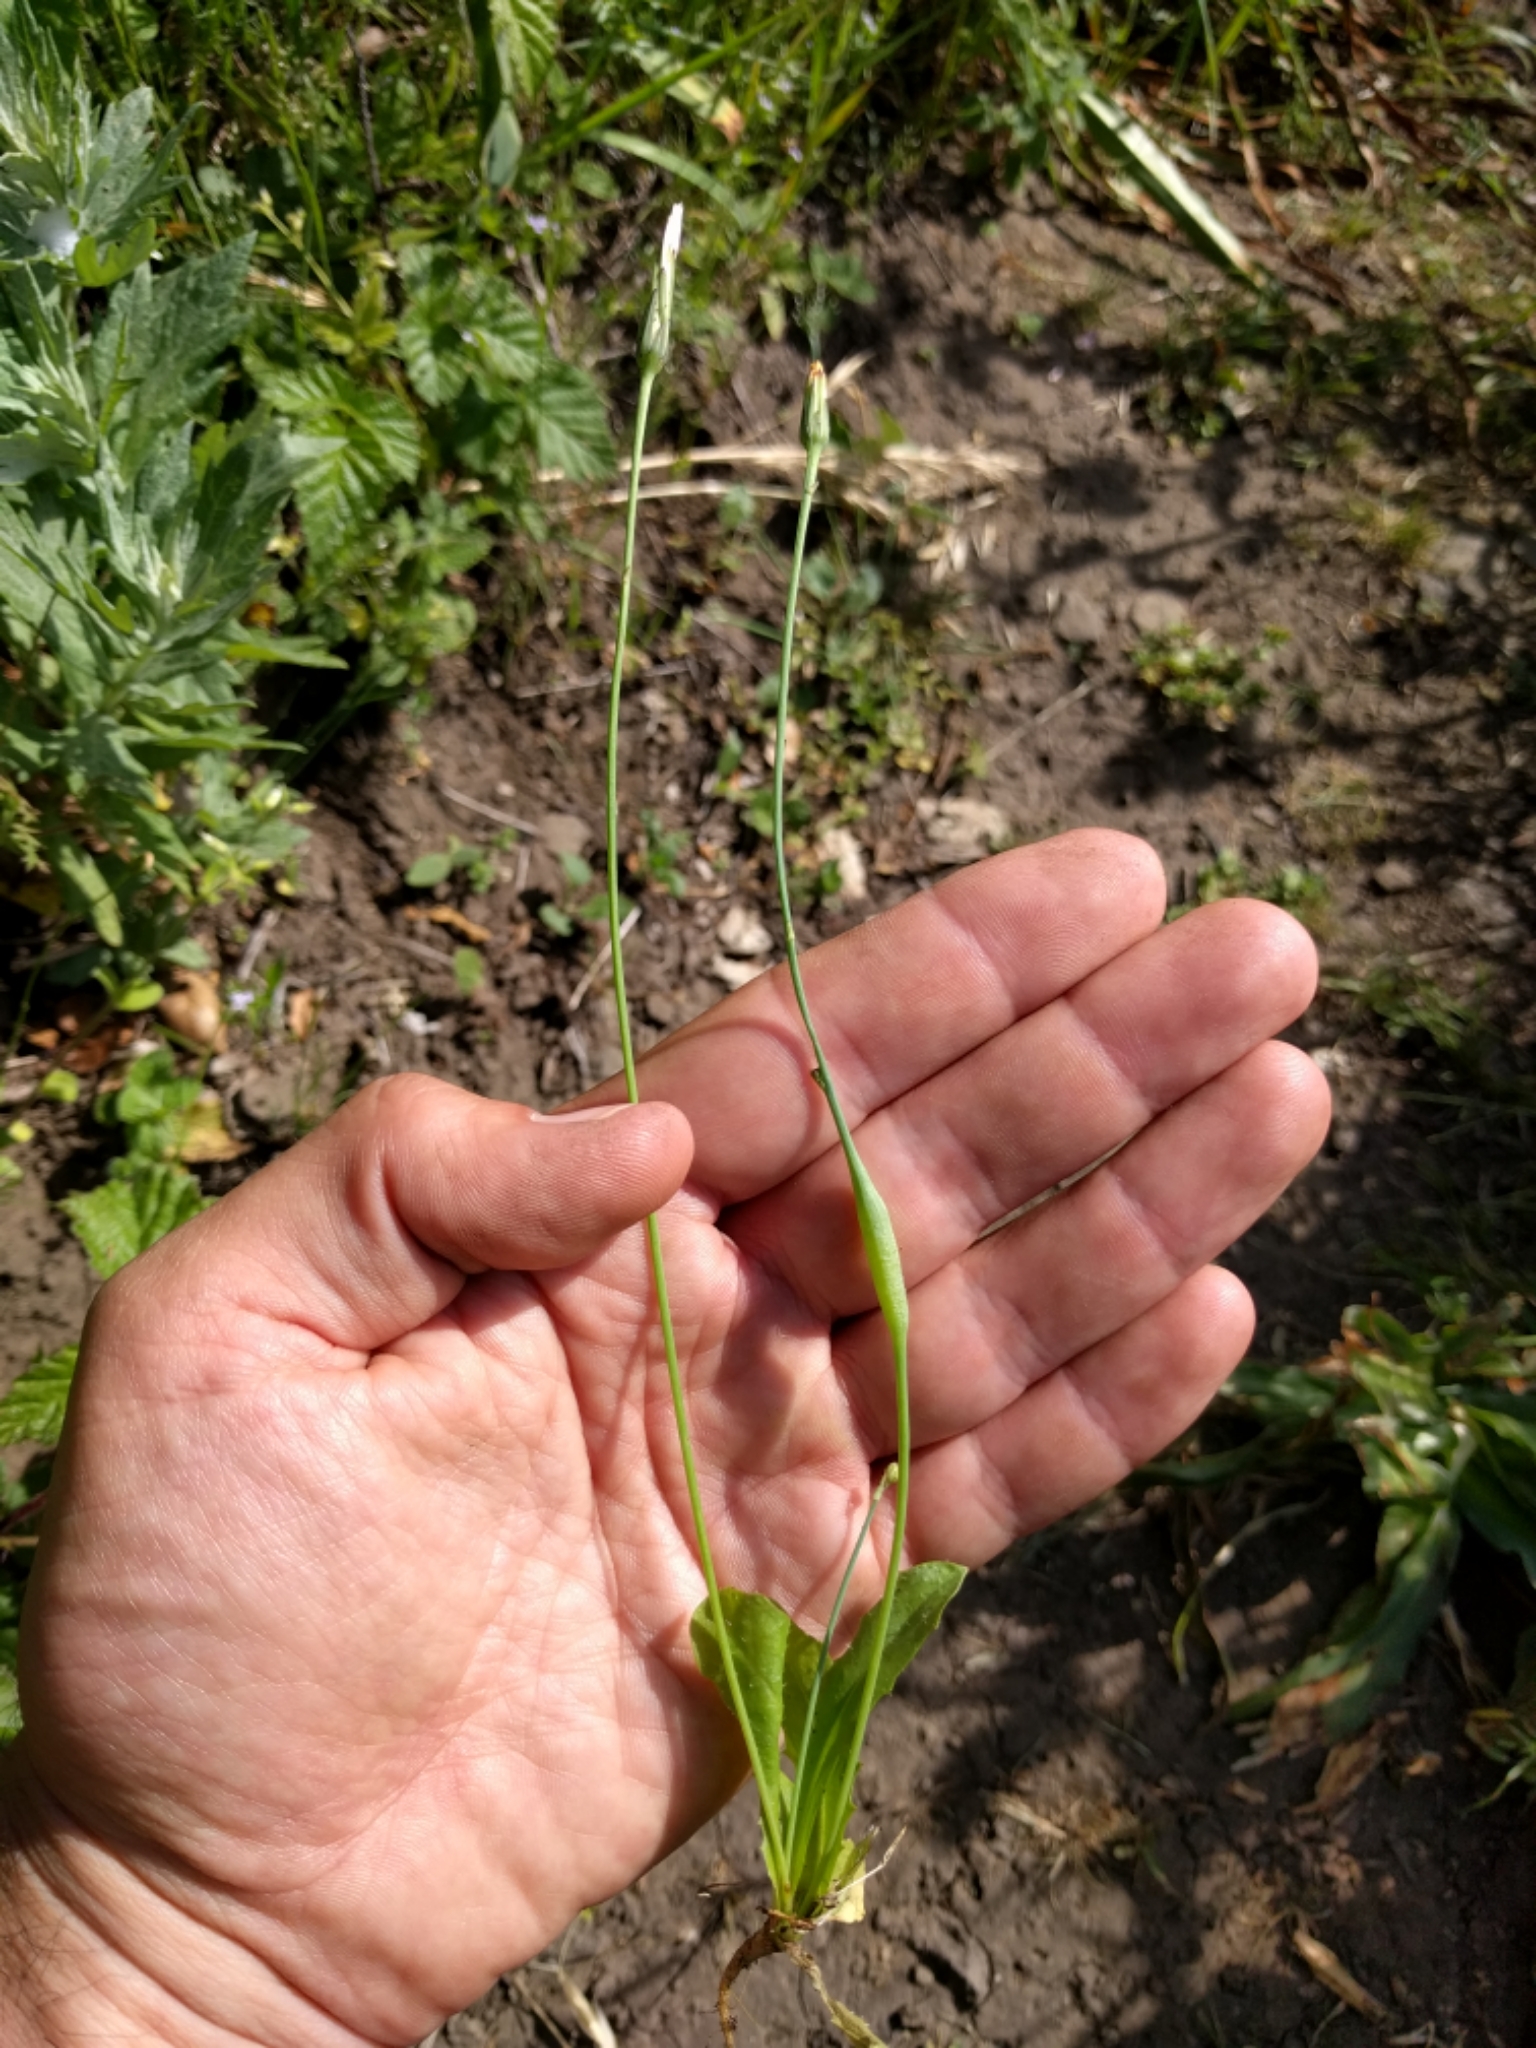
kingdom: Plantae
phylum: Tracheophyta
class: Magnoliopsida
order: Asterales
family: Asteraceae
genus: Hypochaeris
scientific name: Hypochaeris glabra
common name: Smooth catsear
